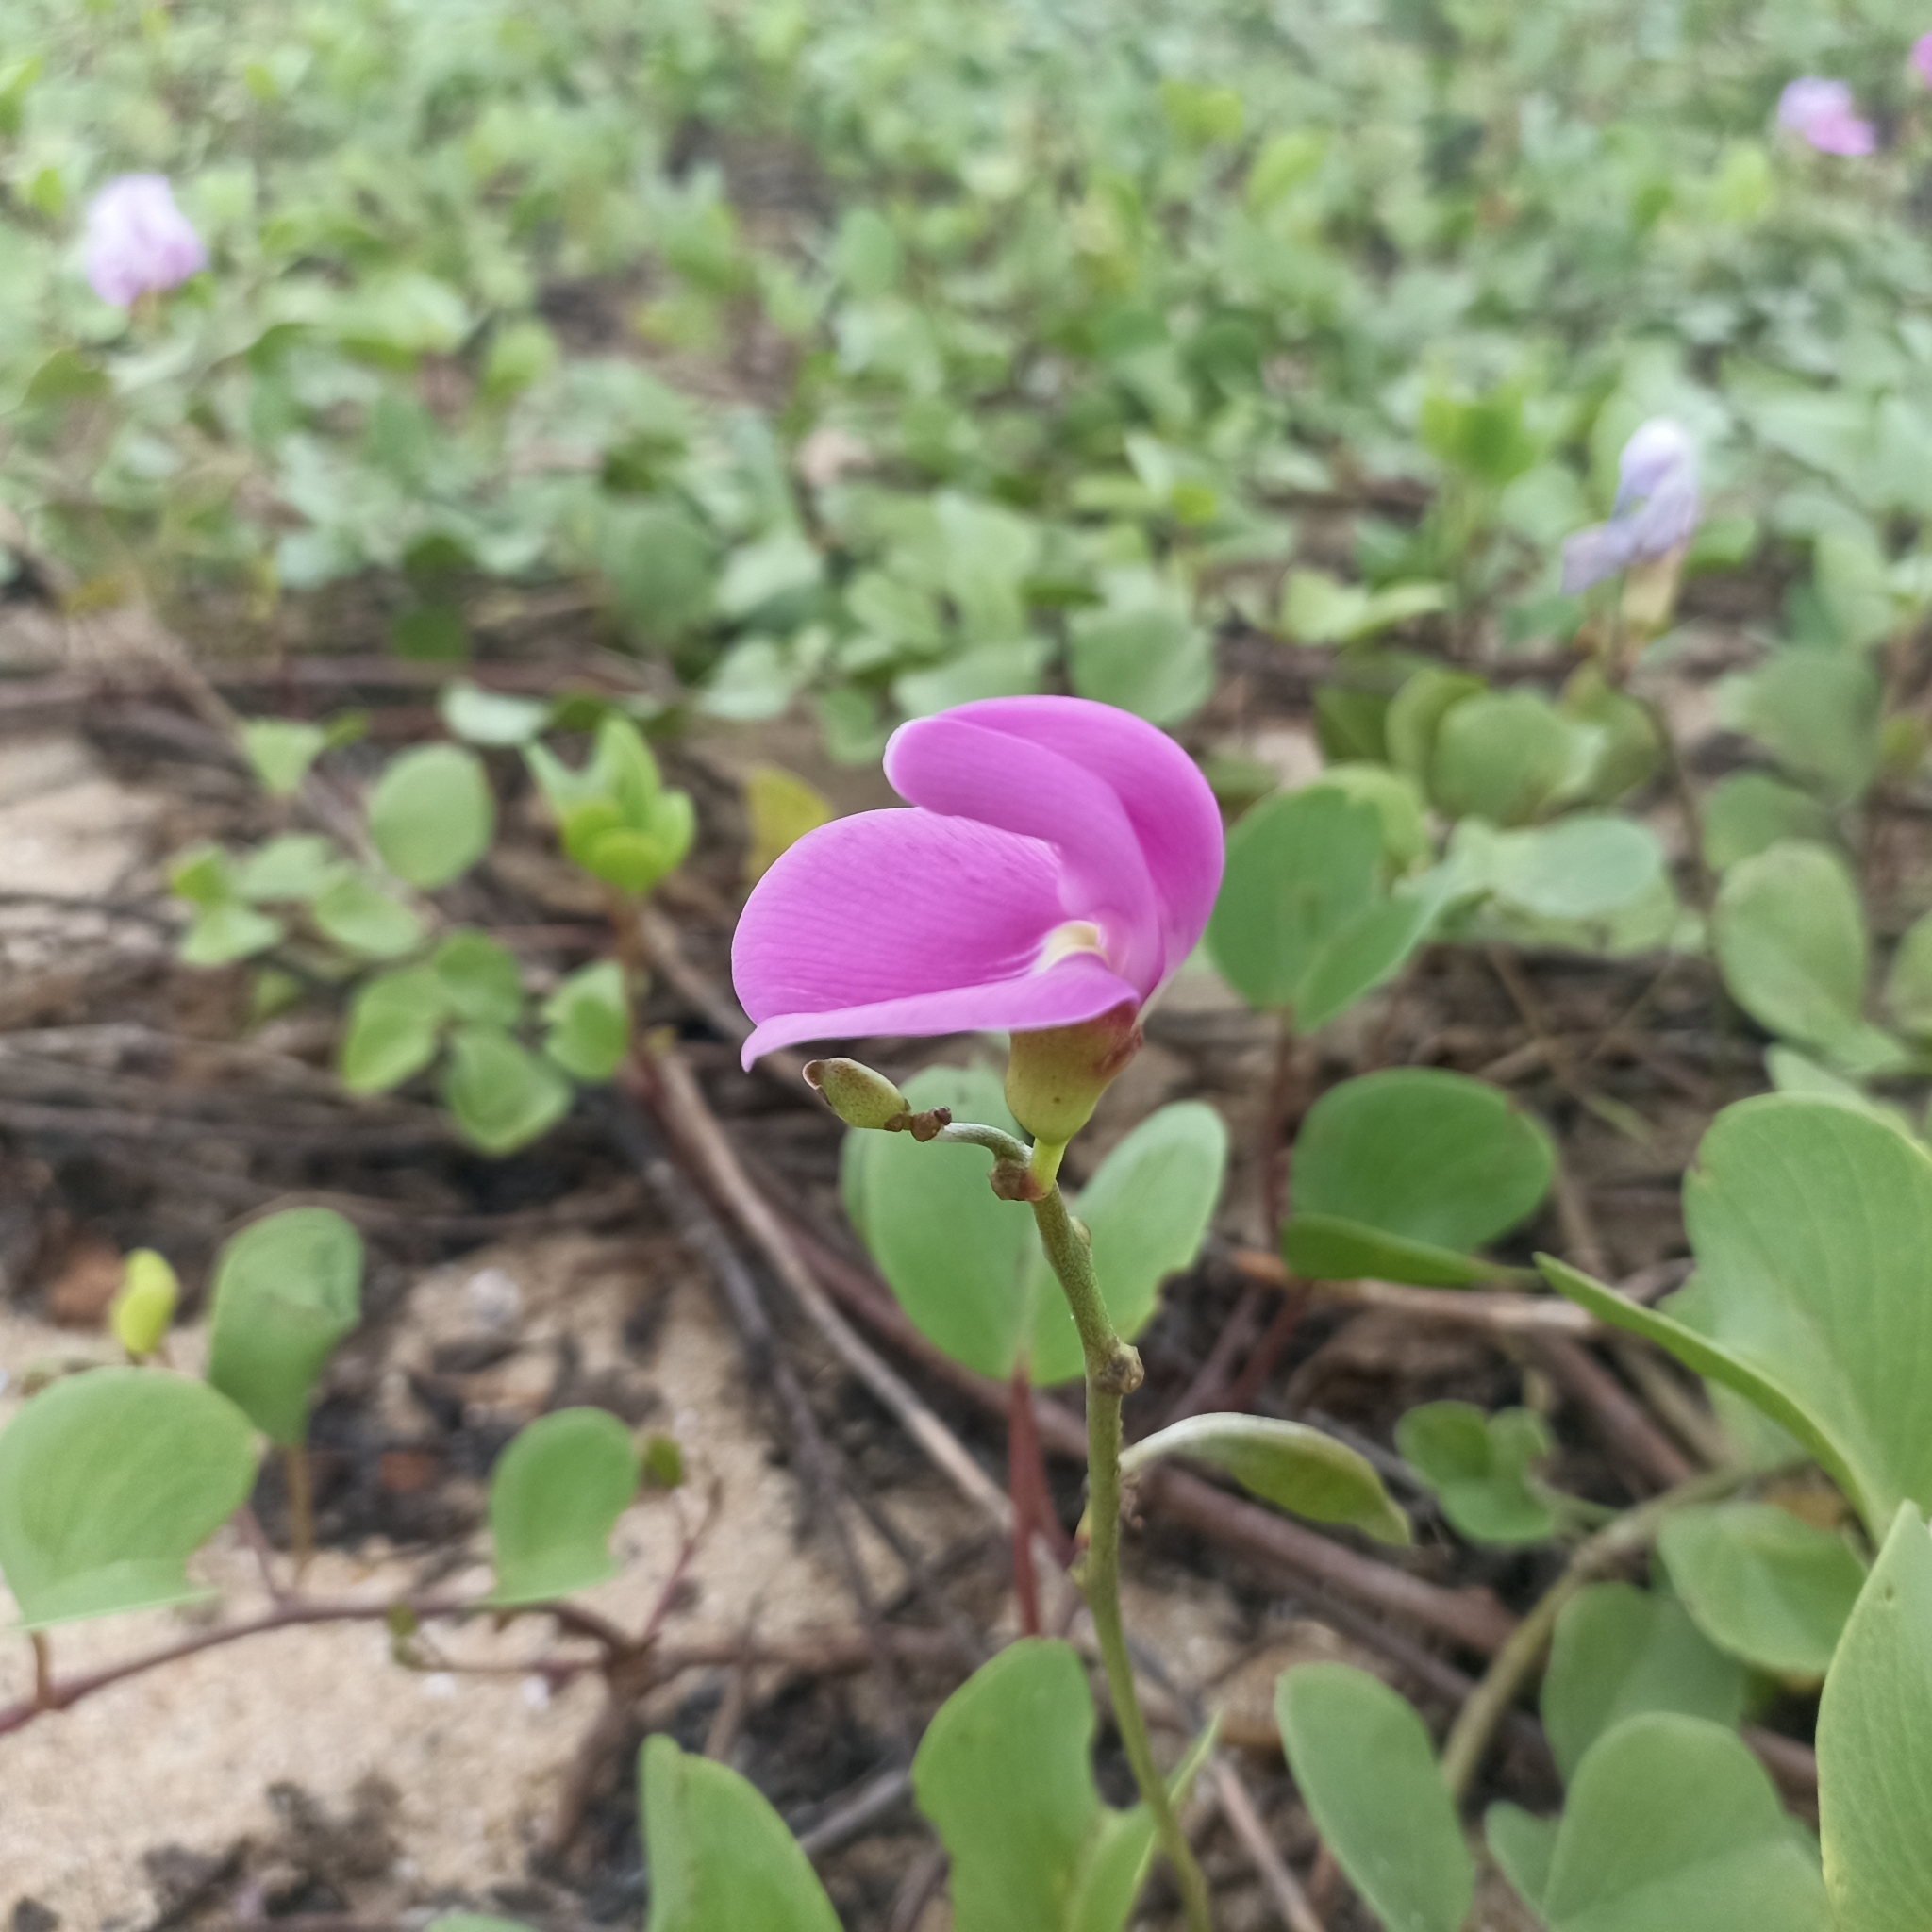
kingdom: Plantae
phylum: Tracheophyta
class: Magnoliopsida
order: Fabales
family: Fabaceae
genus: Canavalia
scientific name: Canavalia rosea
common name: Beach-bean
